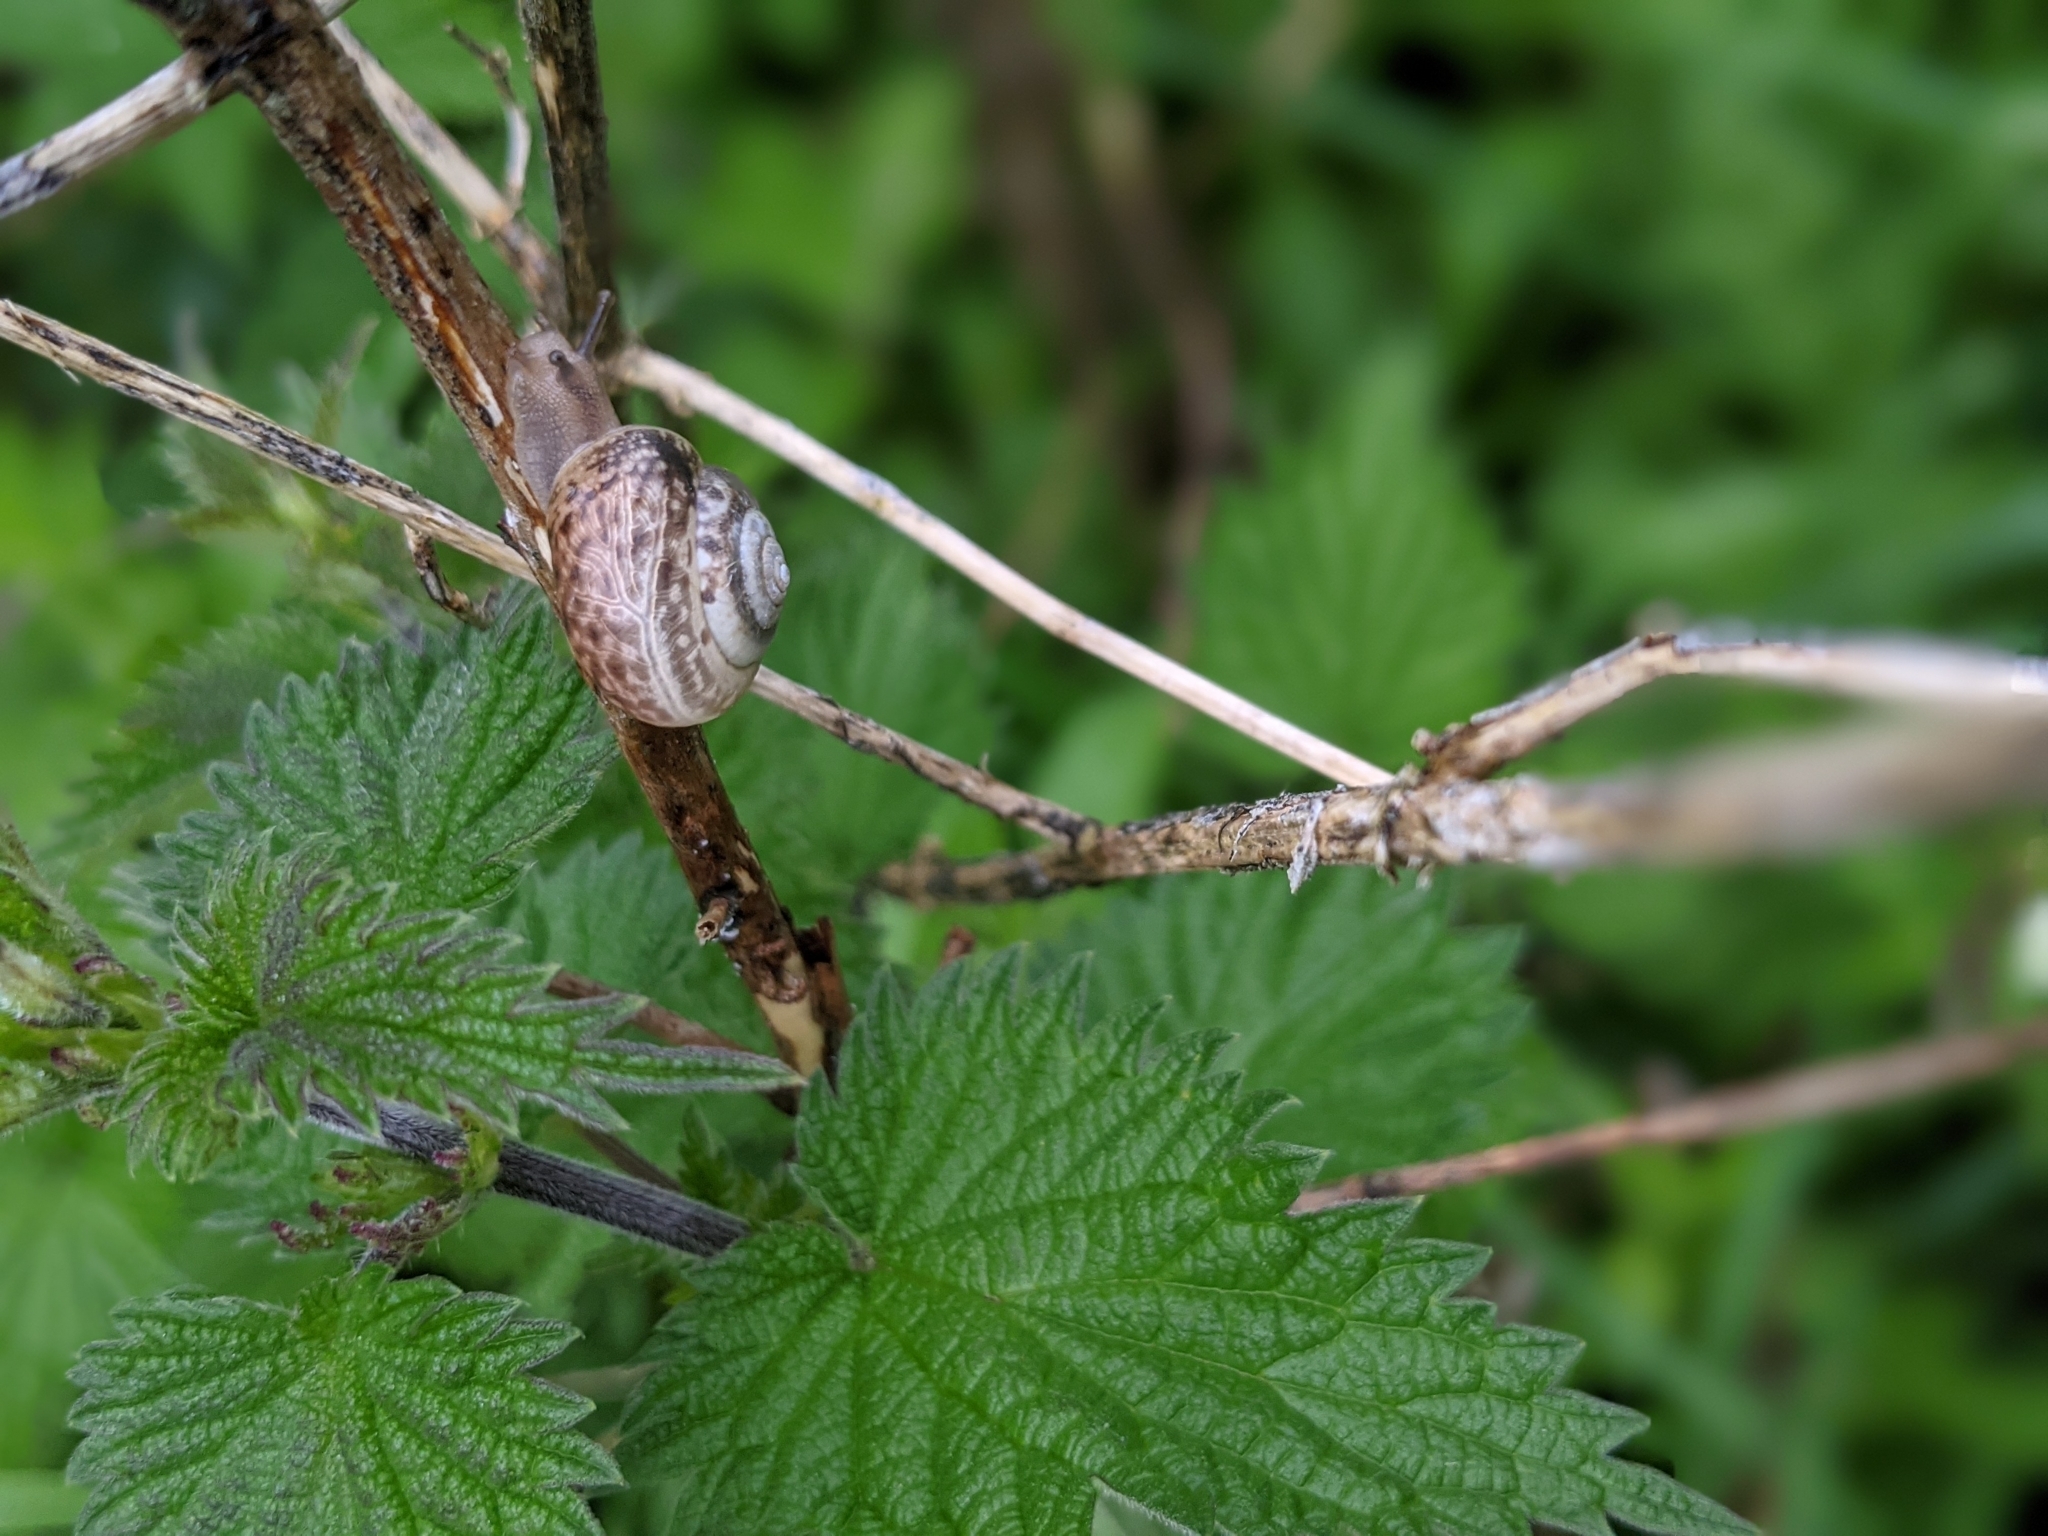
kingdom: Animalia
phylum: Mollusca
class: Gastropoda
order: Stylommatophora
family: Hygromiidae
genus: Monacha
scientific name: Monacha cantiana
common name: Kentish snail
